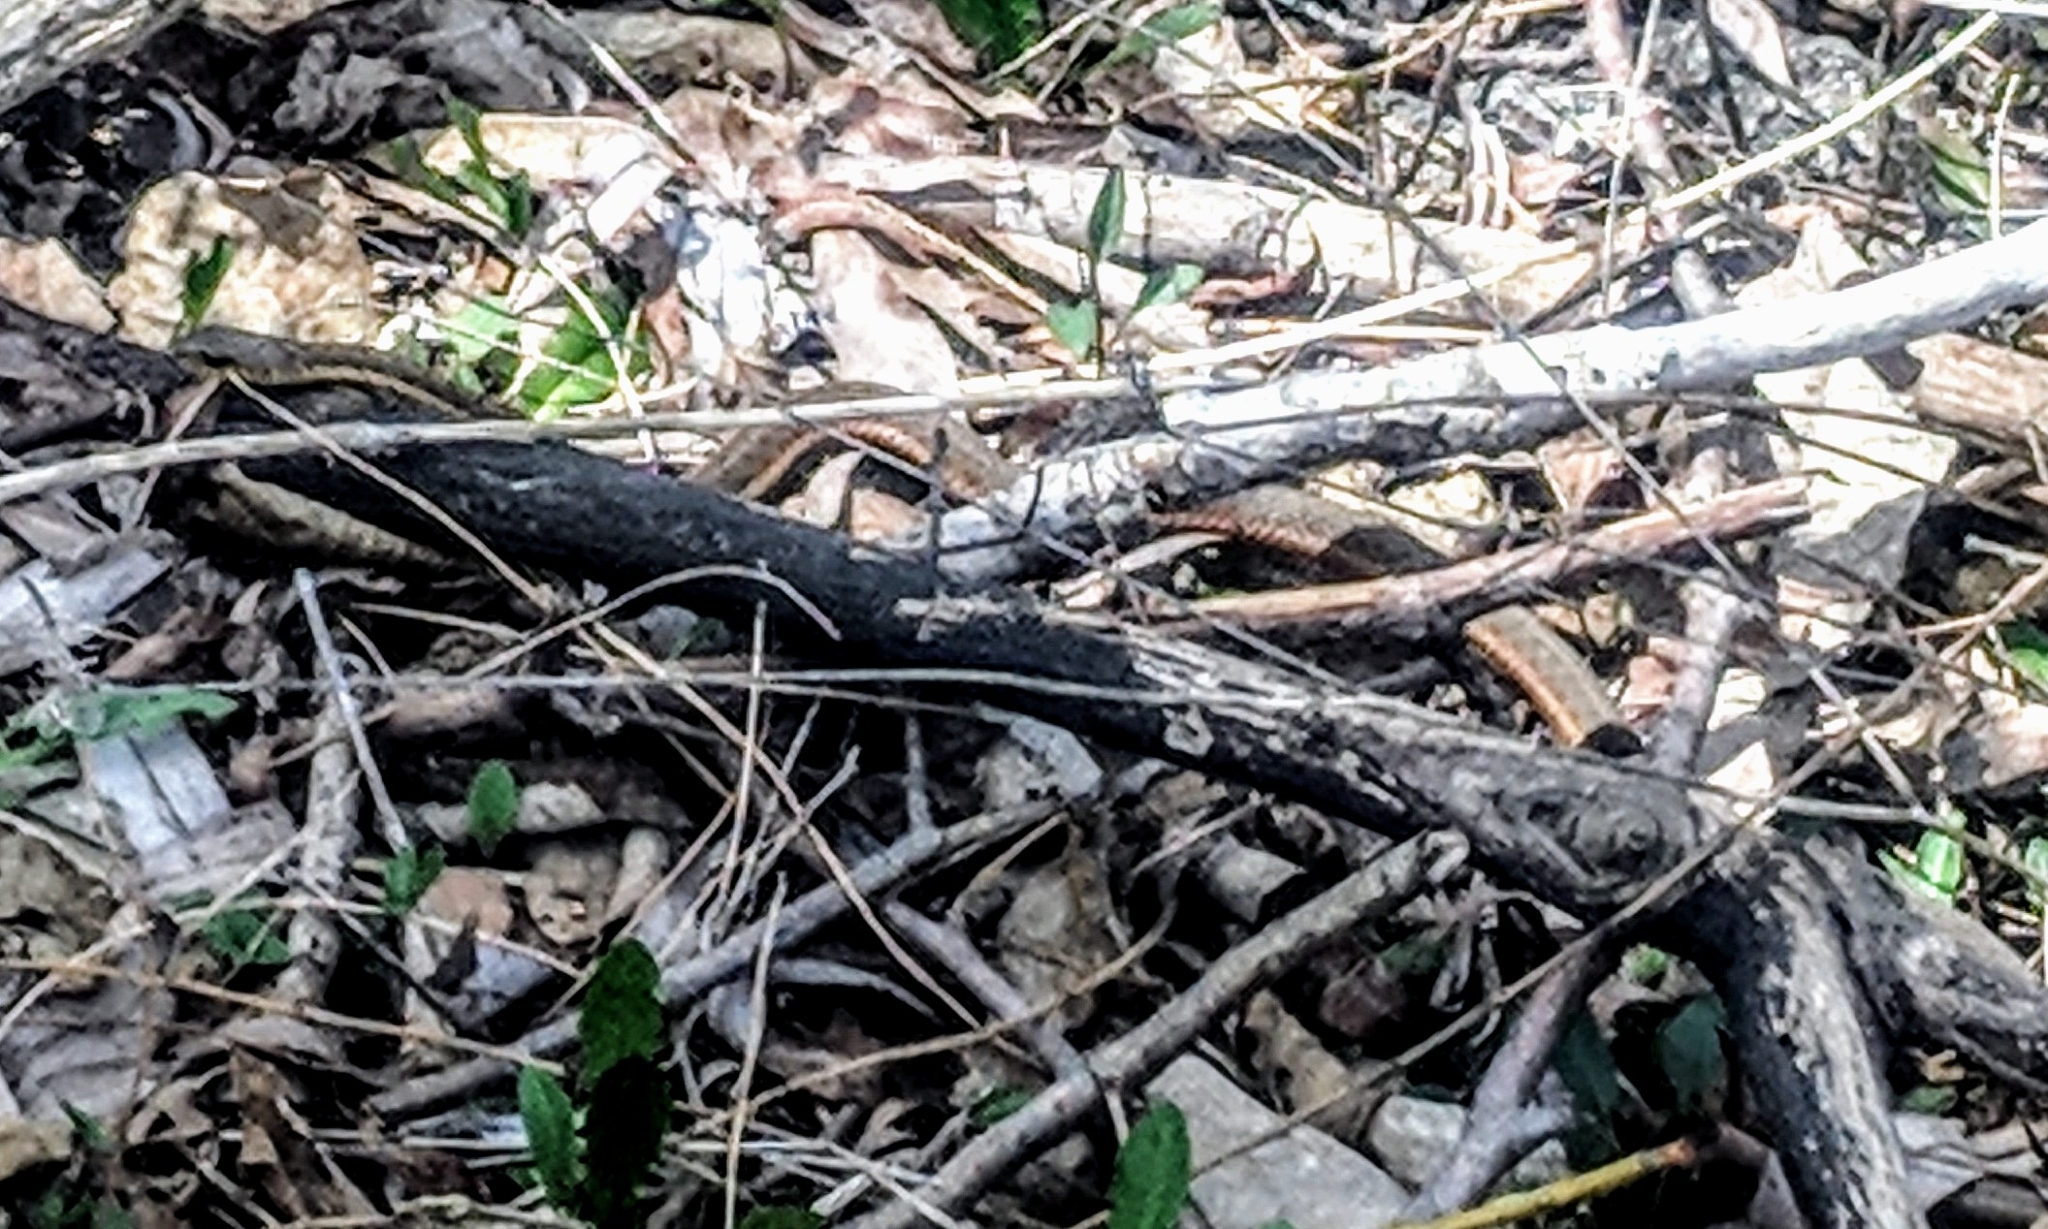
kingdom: Animalia
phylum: Chordata
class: Squamata
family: Colubridae
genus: Thamnophis
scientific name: Thamnophis sirtalis
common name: Common garter snake
